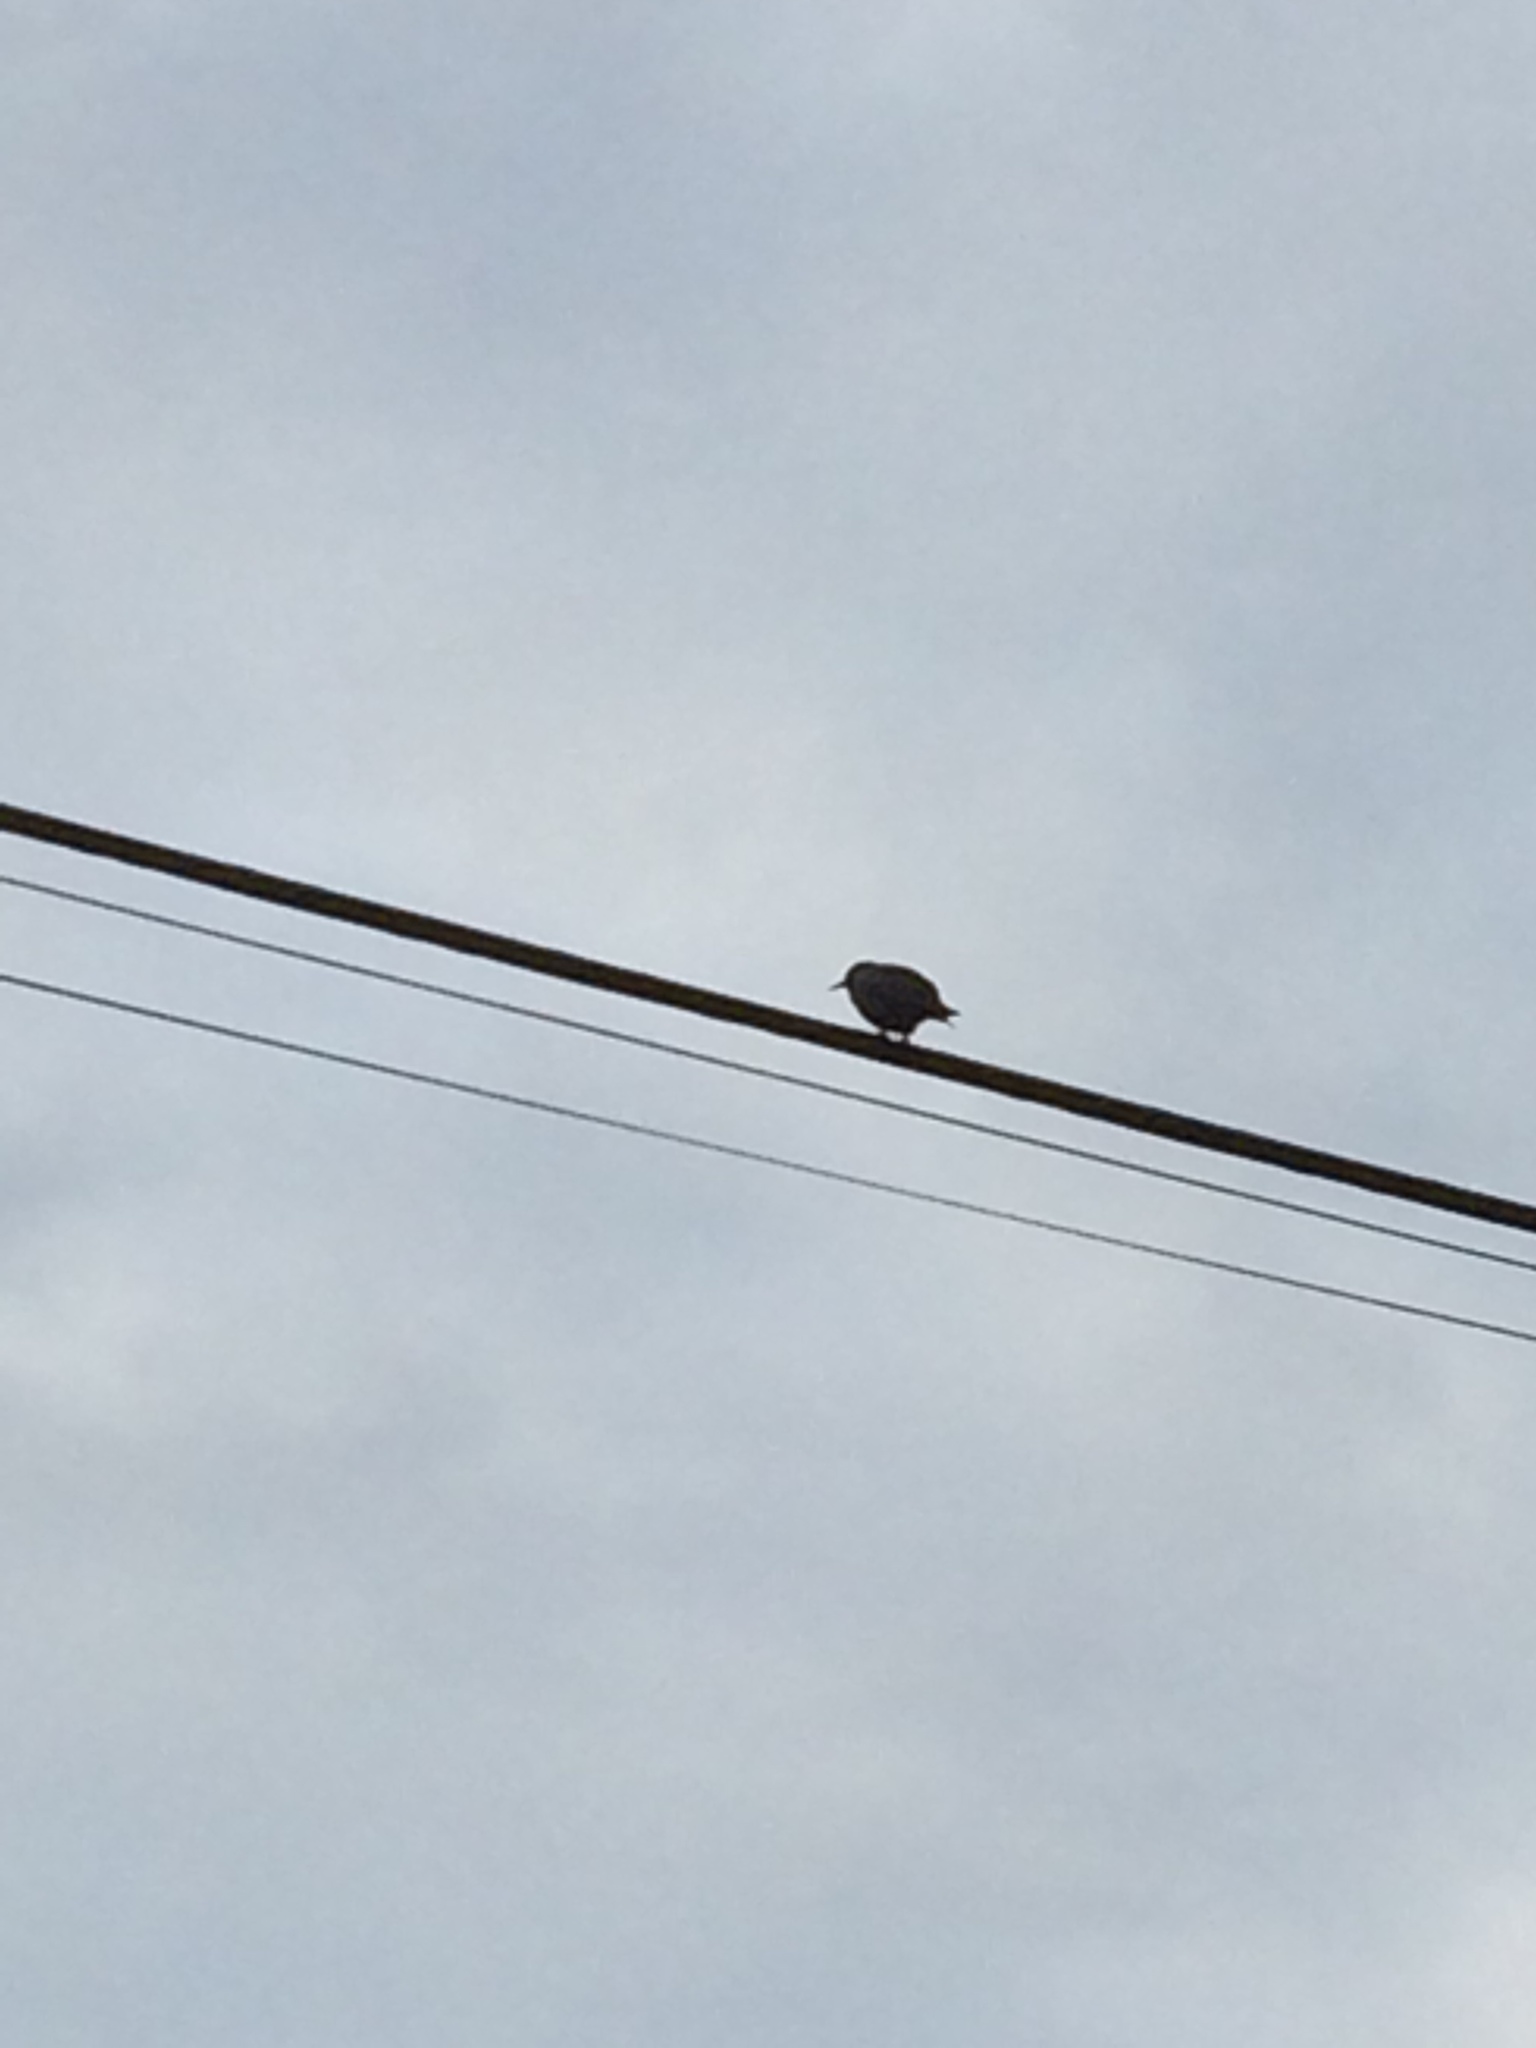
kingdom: Animalia
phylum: Chordata
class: Aves
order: Passeriformes
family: Sturnidae
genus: Sturnus
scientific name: Sturnus vulgaris
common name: Common starling
